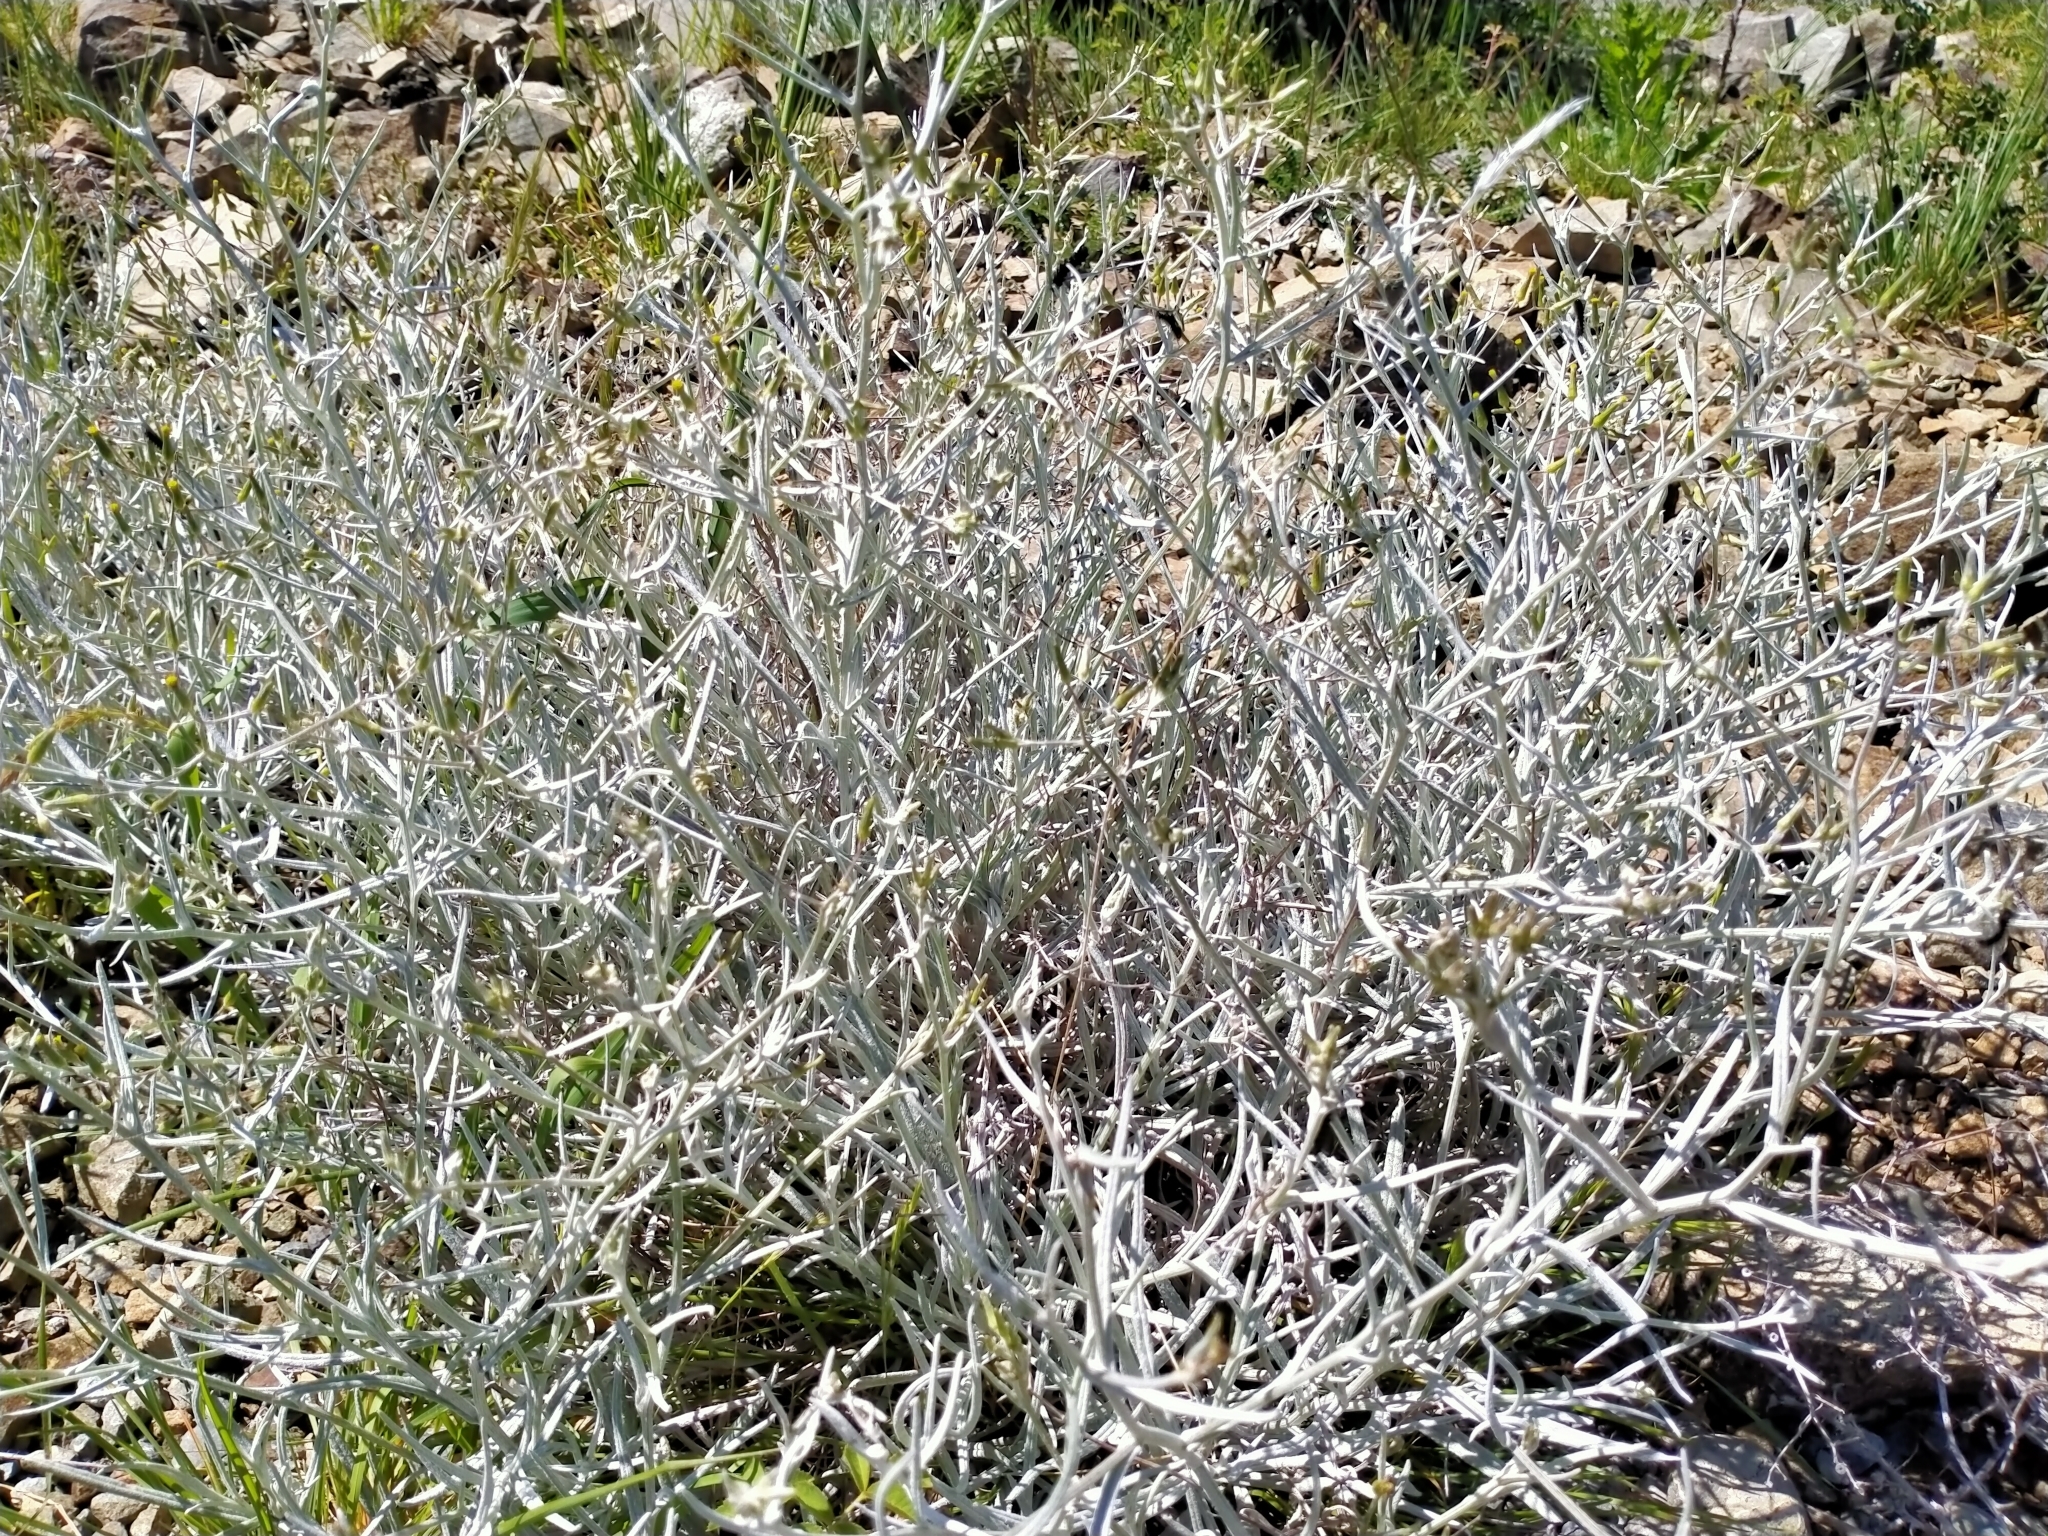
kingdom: Plantae
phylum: Tracheophyta
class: Magnoliopsida
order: Asterales
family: Asteraceae
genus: Senecio
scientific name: Senecio quadridentatus
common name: Cotton fireweed
